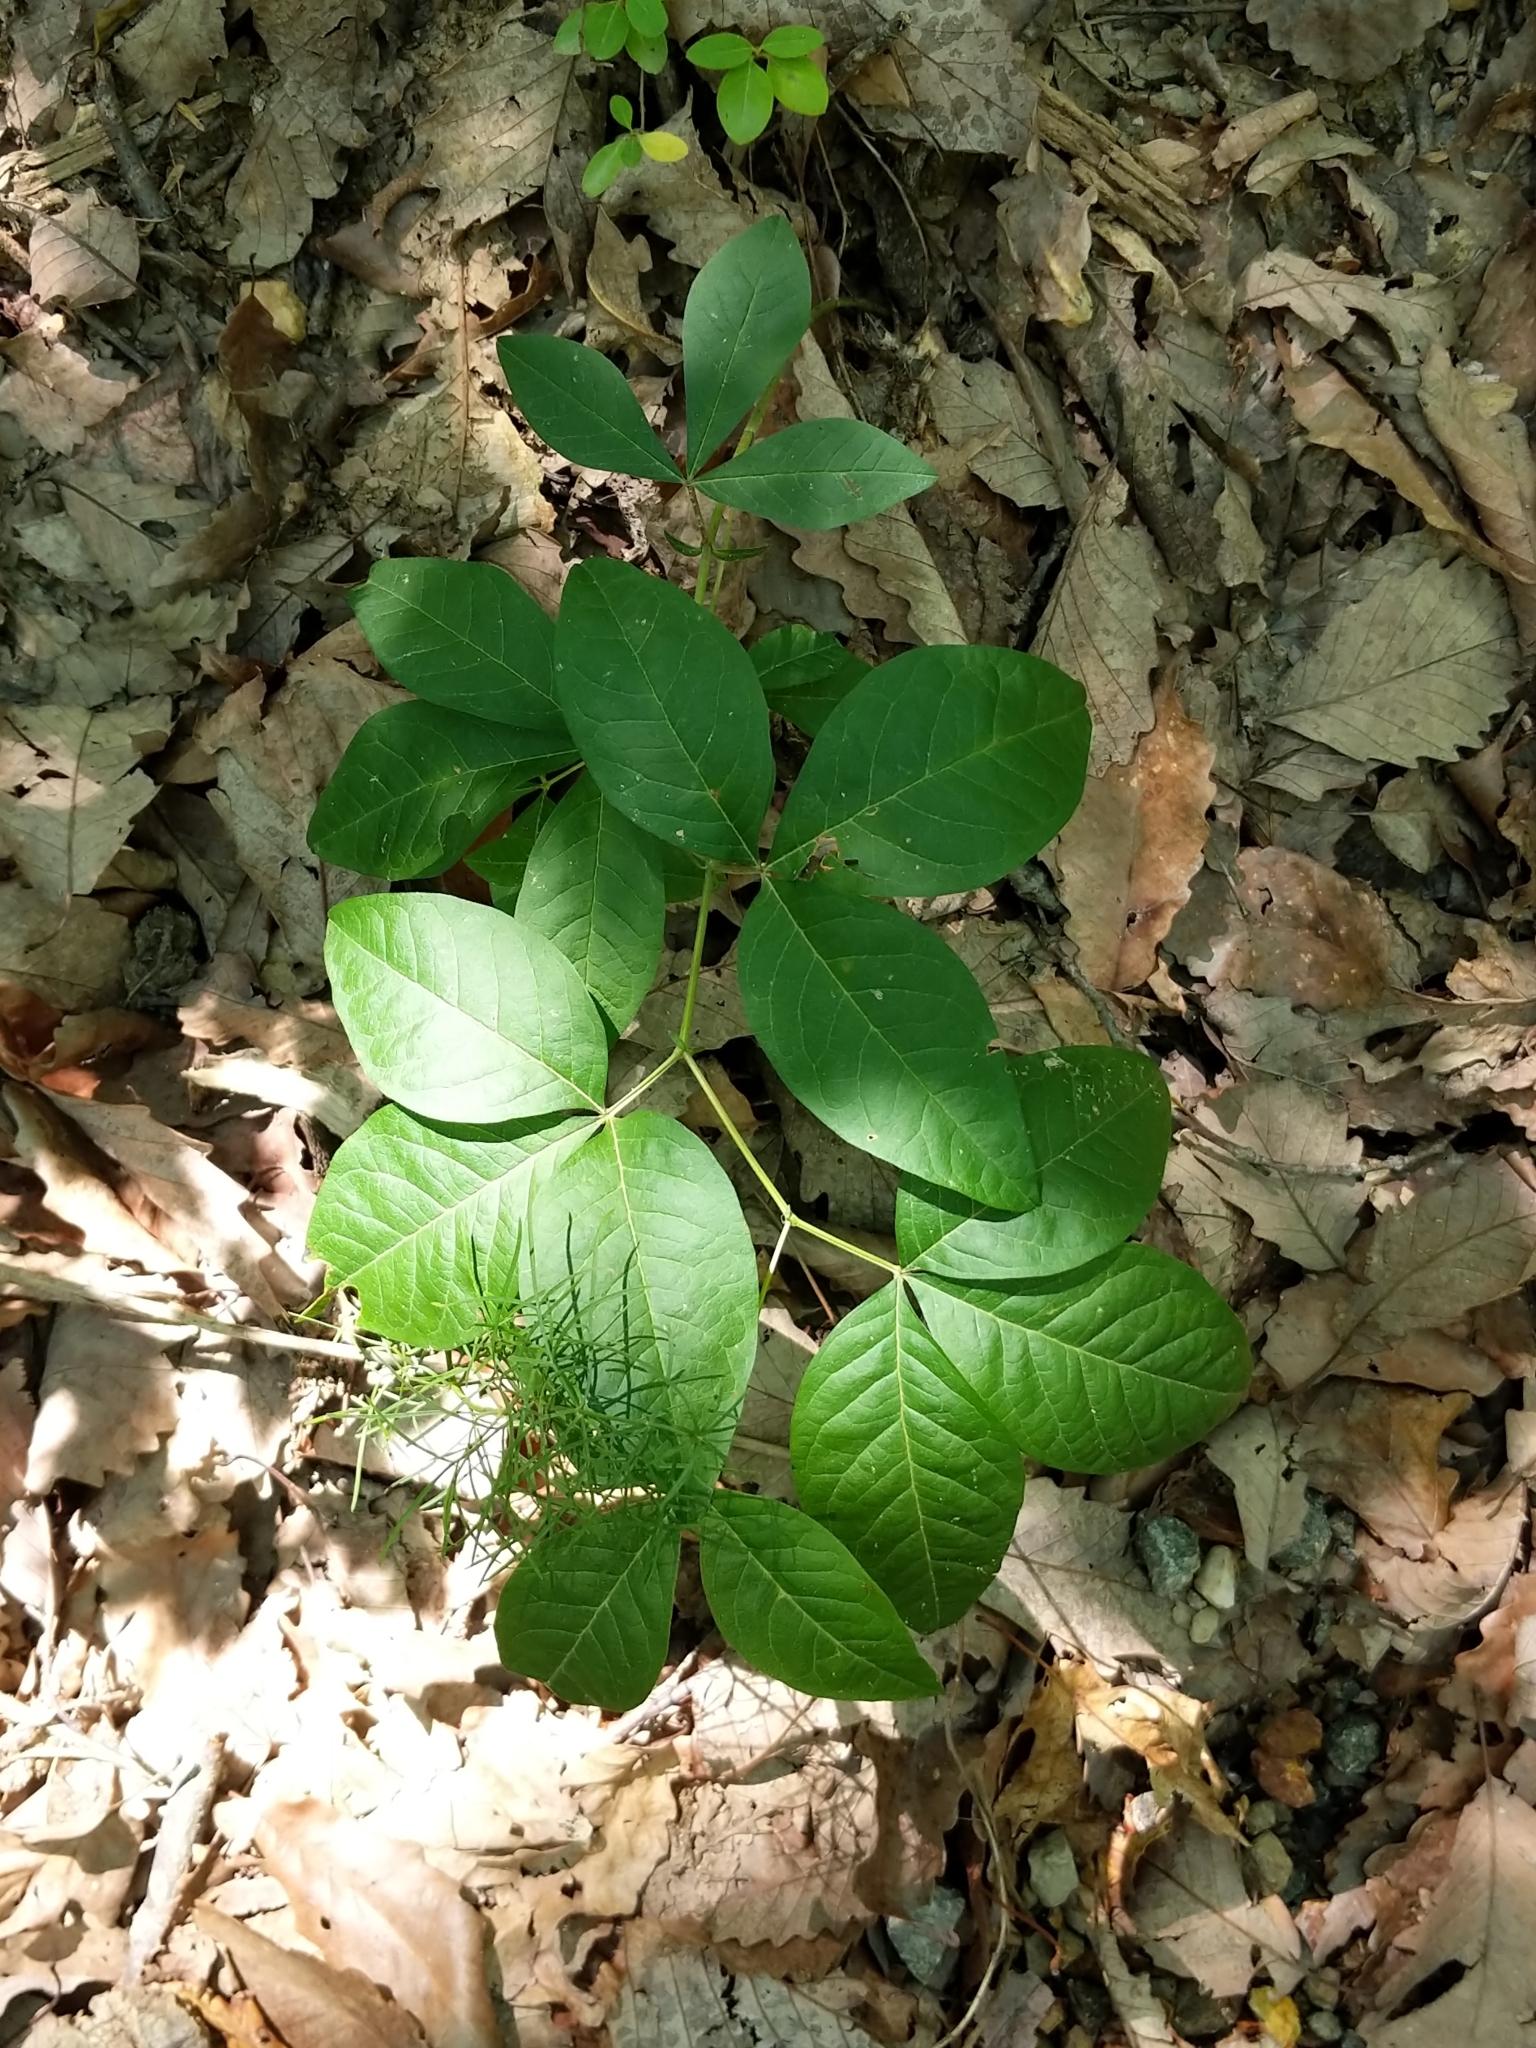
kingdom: Plantae
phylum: Tracheophyta
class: Magnoliopsida
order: Sapindales
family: Rutaceae
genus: Ptelea
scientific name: Ptelea trifoliata
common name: Common hop-tree
